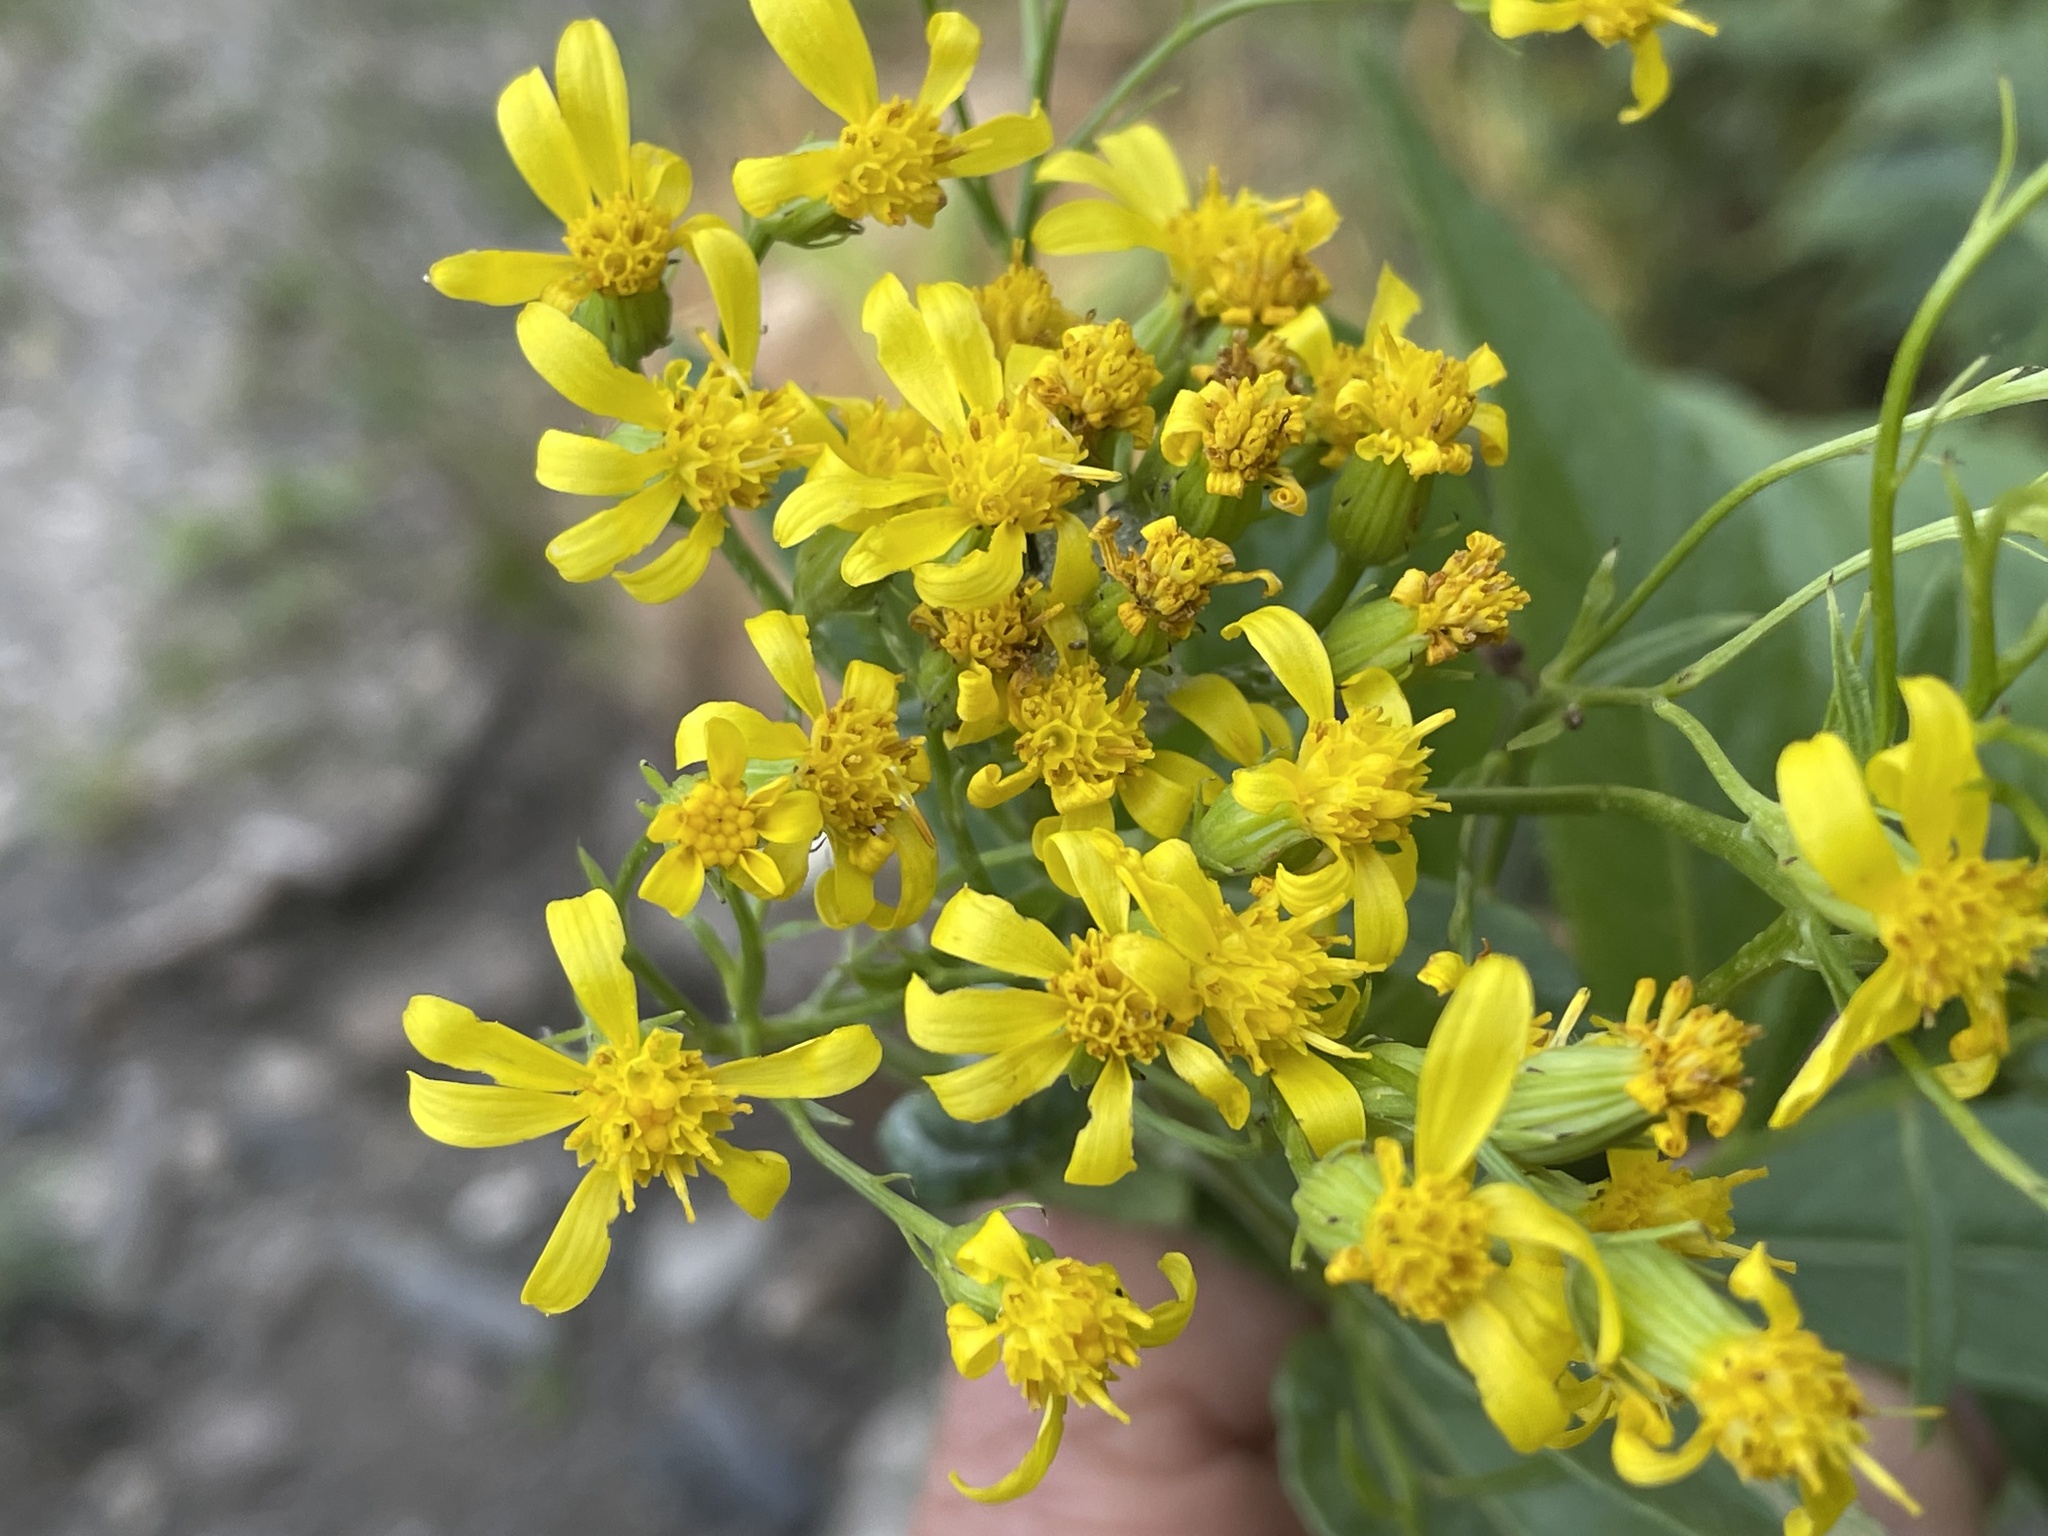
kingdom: Plantae
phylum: Tracheophyta
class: Magnoliopsida
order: Asterales
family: Asteraceae
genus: Senecio
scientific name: Senecio serra
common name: Tall ragwort
